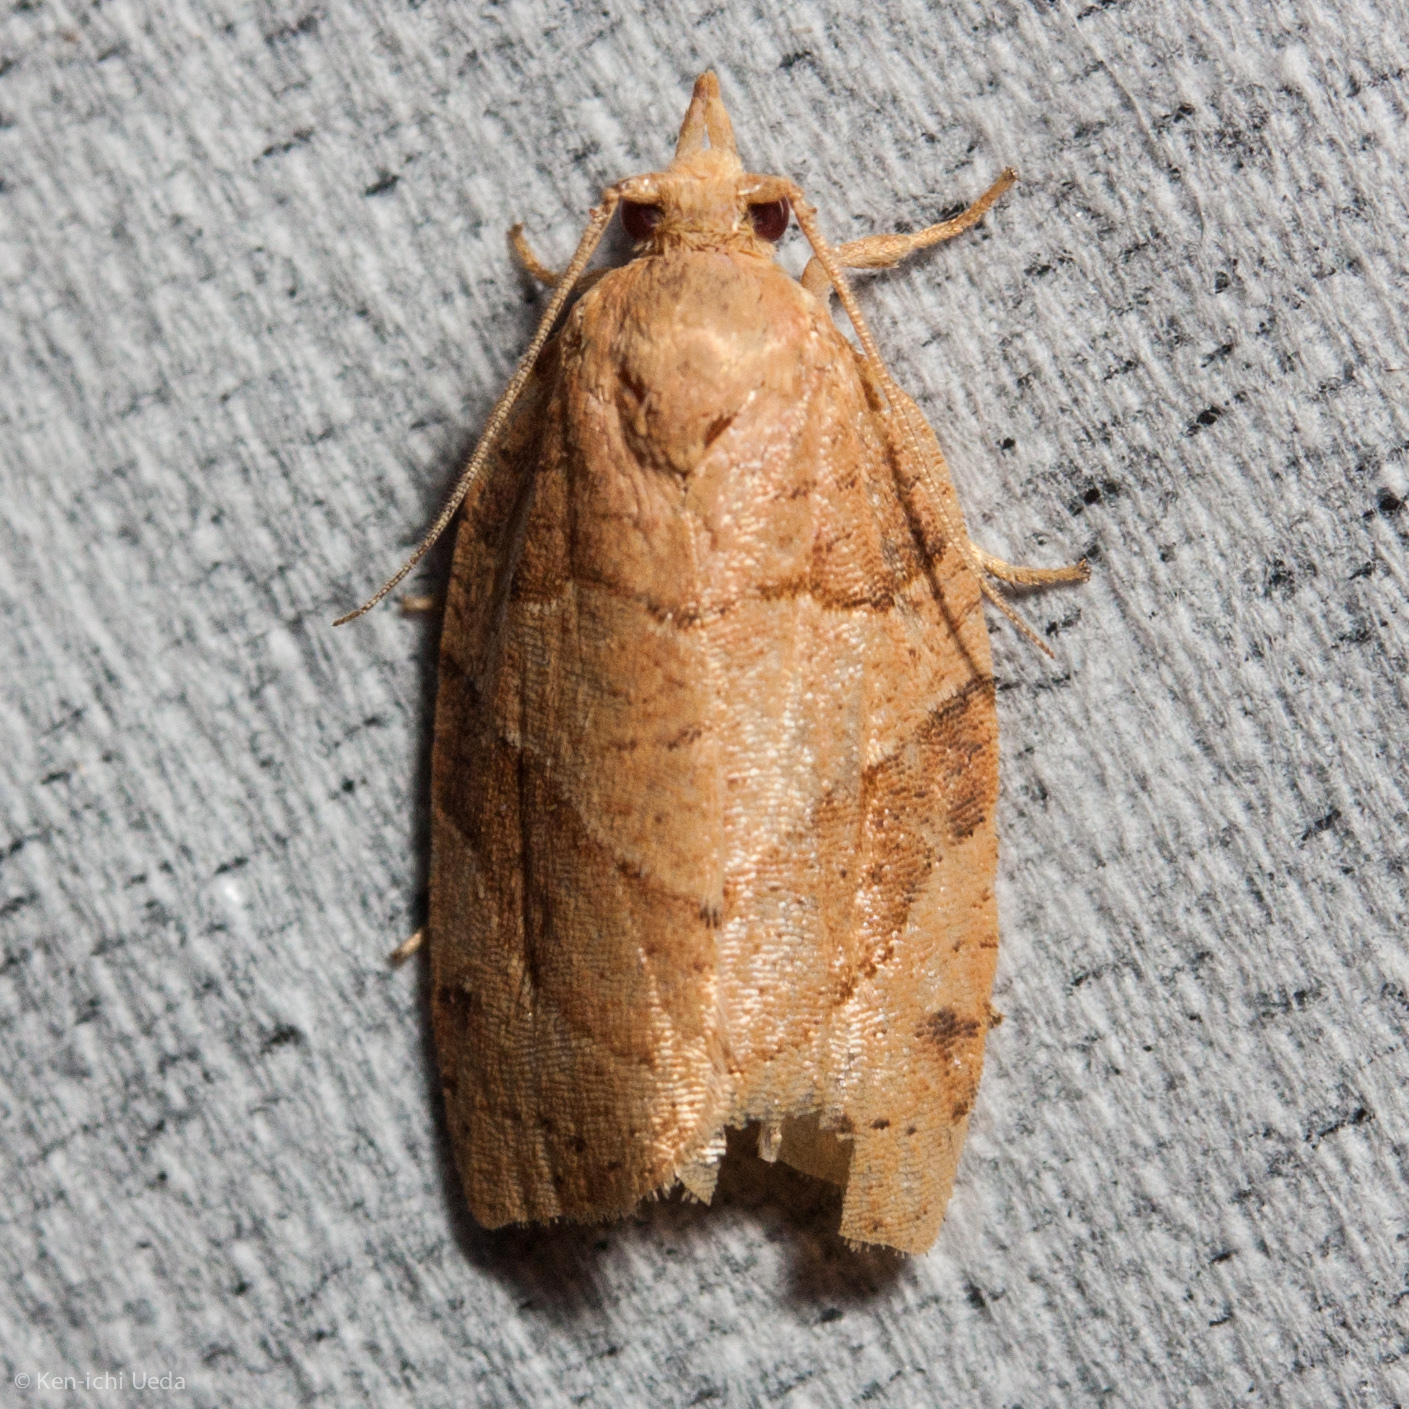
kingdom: Animalia
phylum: Arthropoda
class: Insecta
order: Lepidoptera
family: Tortricidae
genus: Pandemis
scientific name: Pandemis lamprosana
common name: Woodgrain leafroller moth
